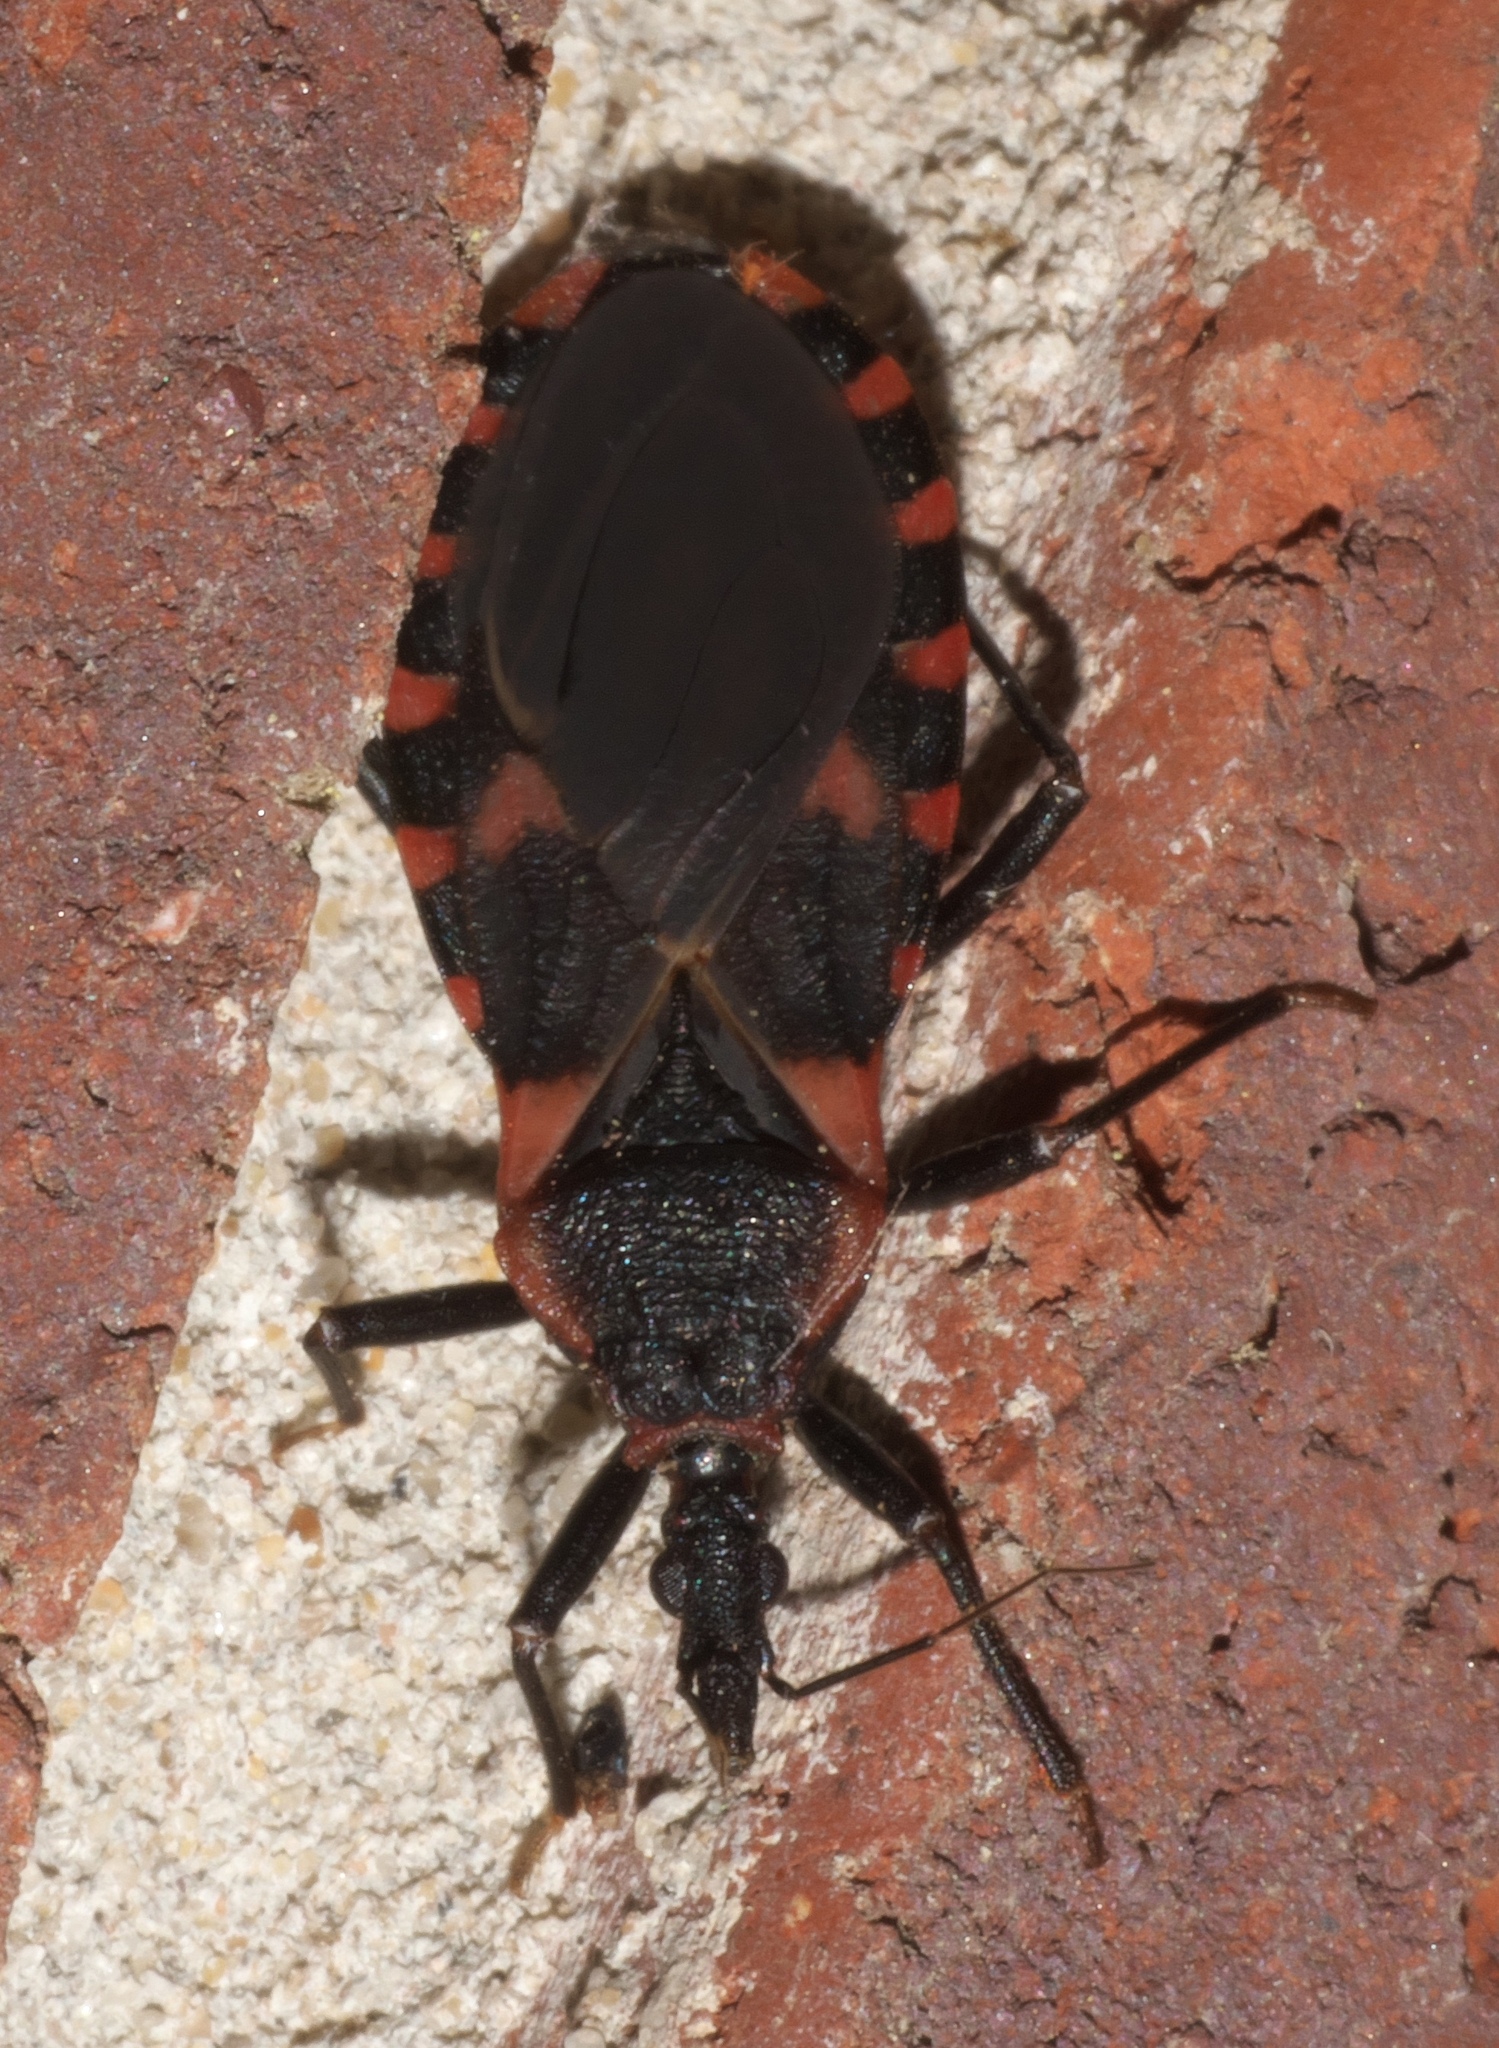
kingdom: Animalia
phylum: Arthropoda
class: Insecta
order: Hemiptera
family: Reduviidae
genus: Triatoma
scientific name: Triatoma sanguisuga
